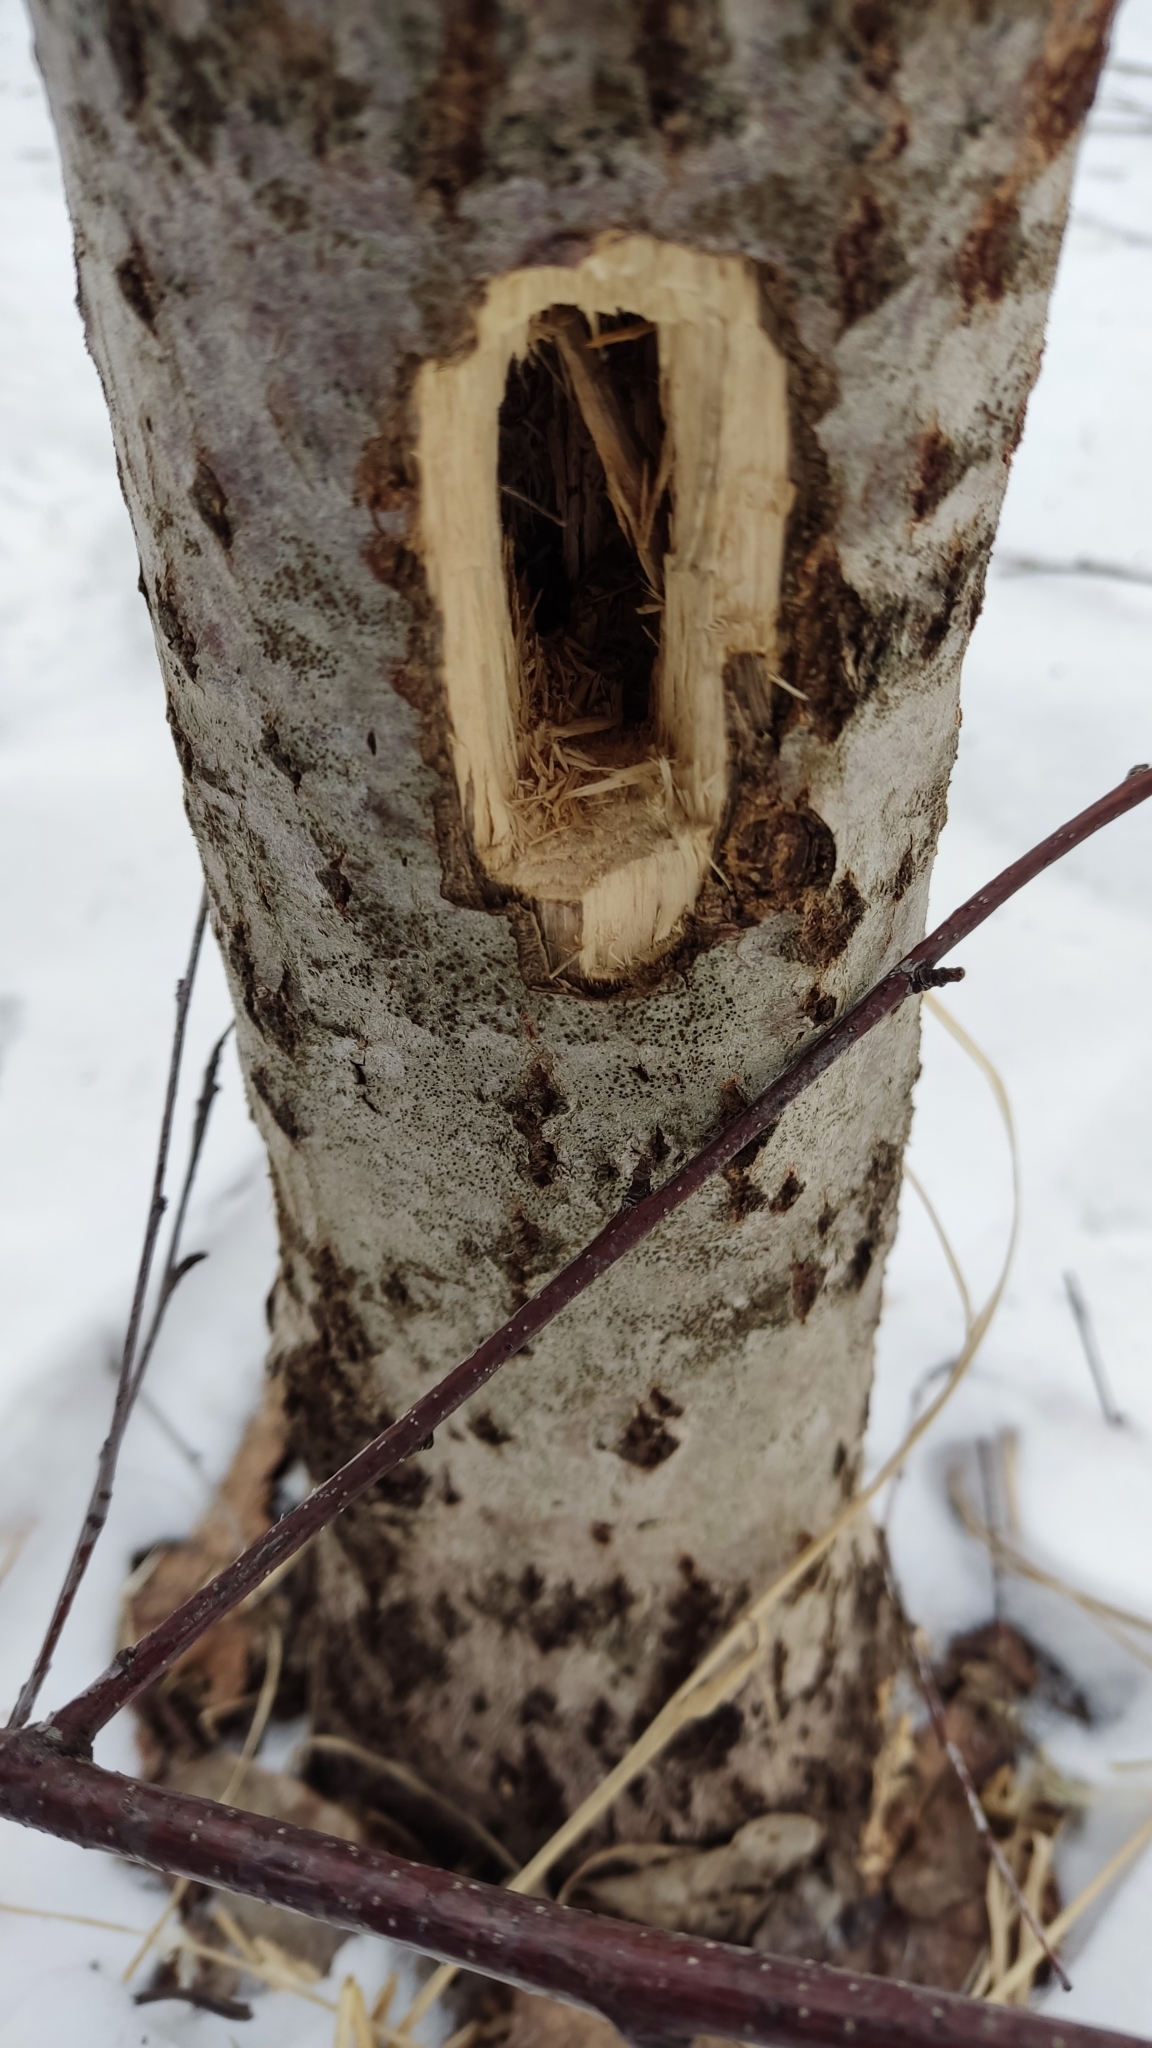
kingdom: Animalia
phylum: Chordata
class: Aves
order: Piciformes
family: Picidae
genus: Dryocopus
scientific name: Dryocopus martius
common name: Black woodpecker
